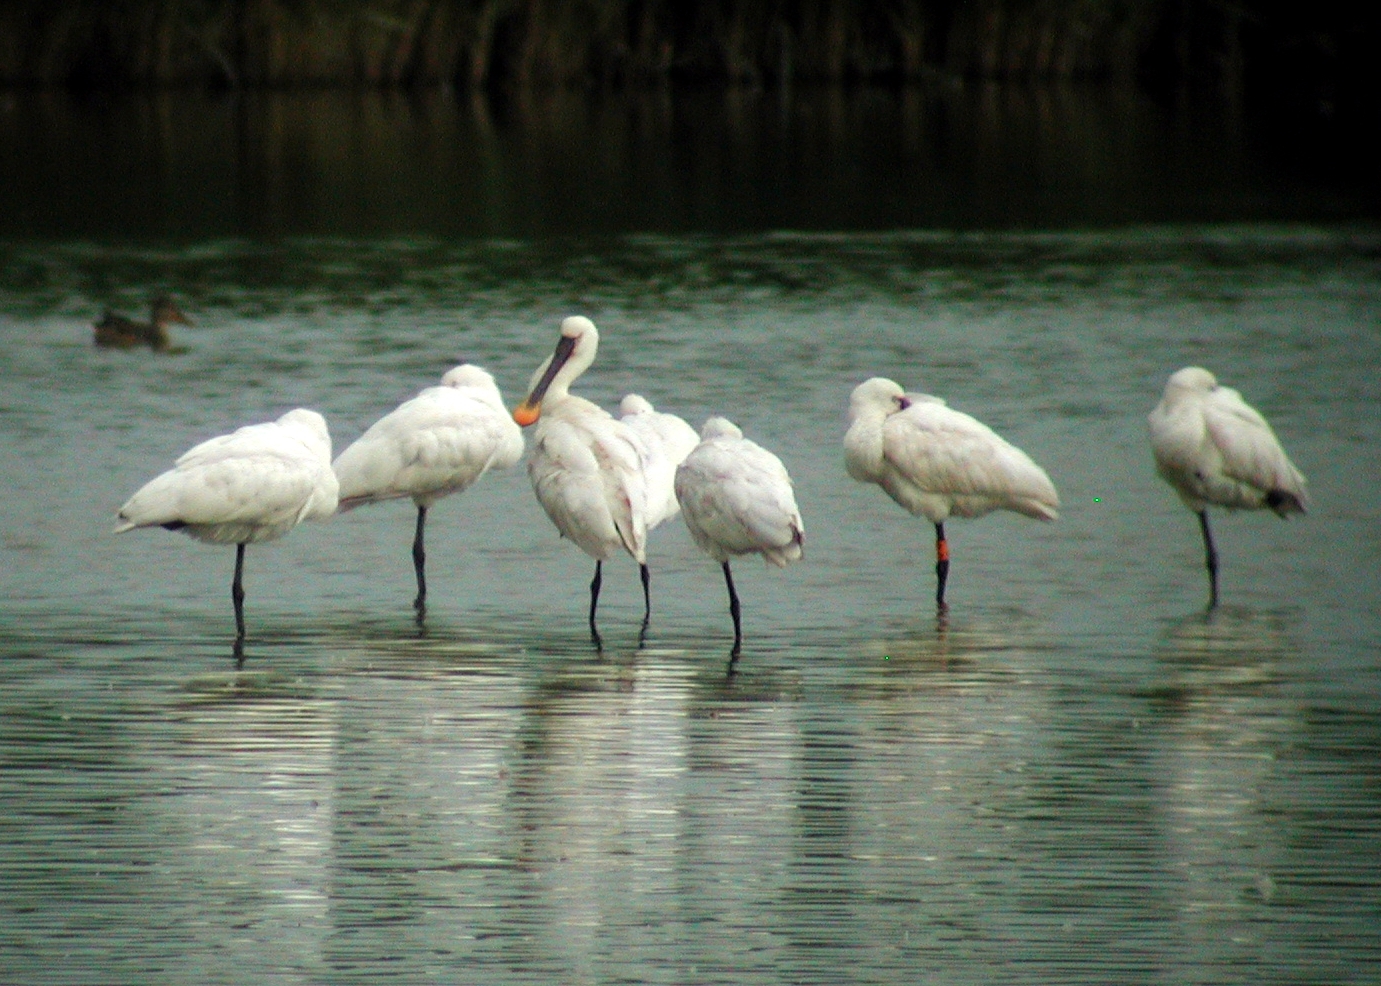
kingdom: Animalia
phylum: Chordata
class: Aves
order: Pelecaniformes
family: Threskiornithidae
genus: Platalea
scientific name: Platalea leucorodia
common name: Eurasian spoonbill
